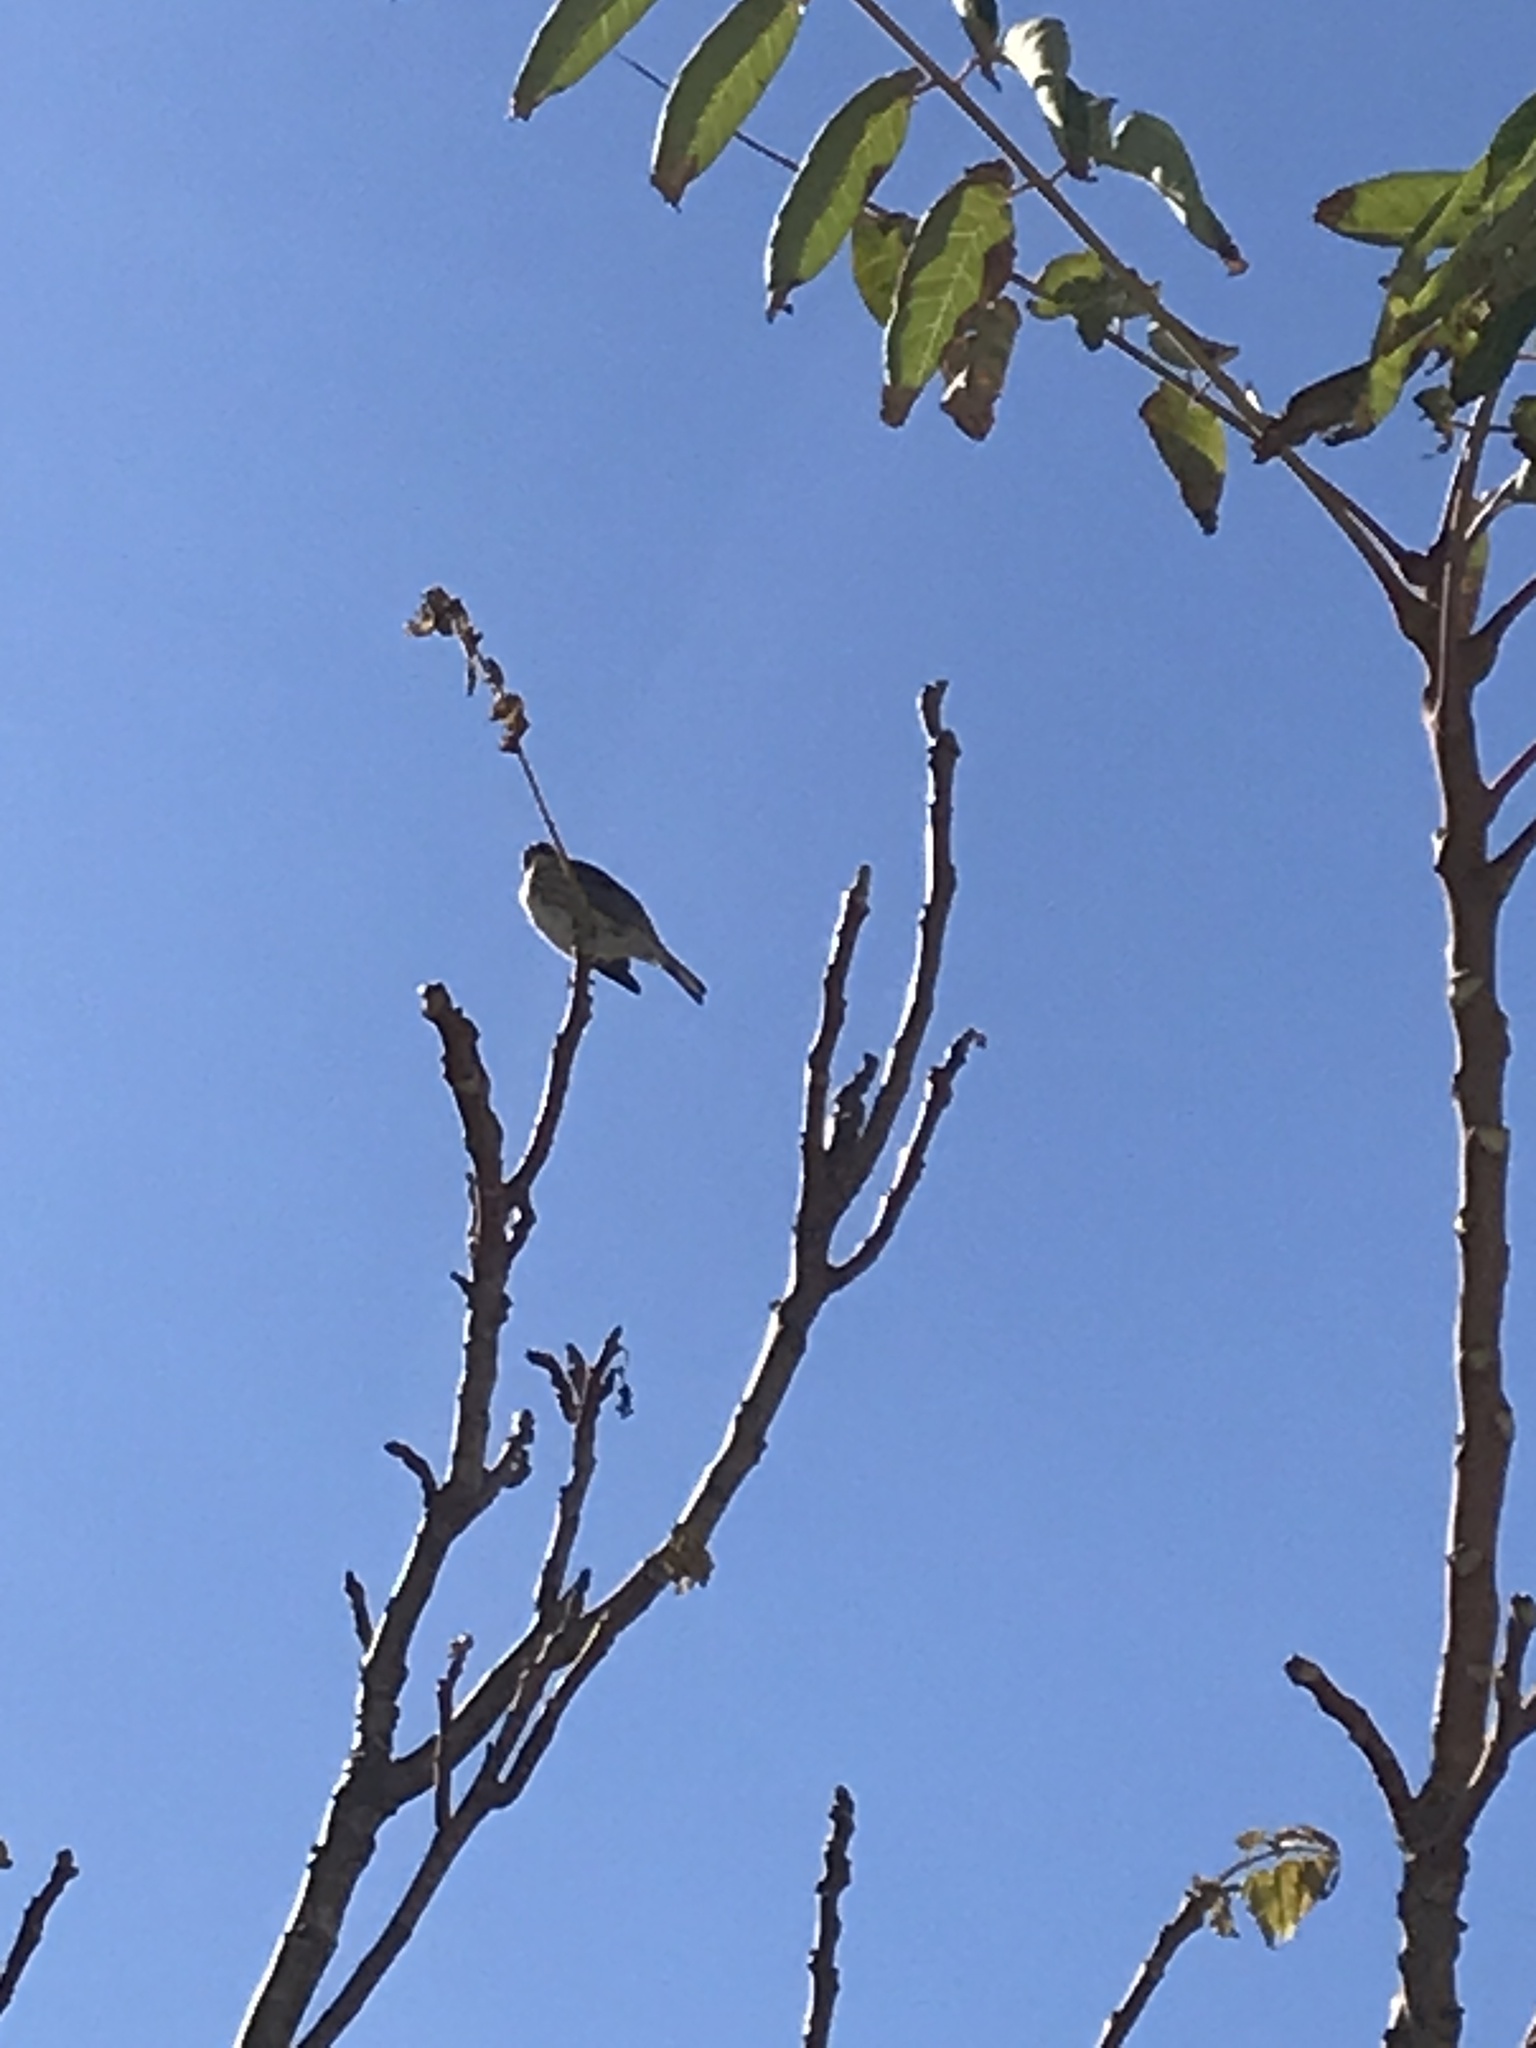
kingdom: Animalia
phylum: Chordata
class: Aves
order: Passeriformes
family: Parulidae
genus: Setophaga
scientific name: Setophaga coronata
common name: Myrtle warbler
